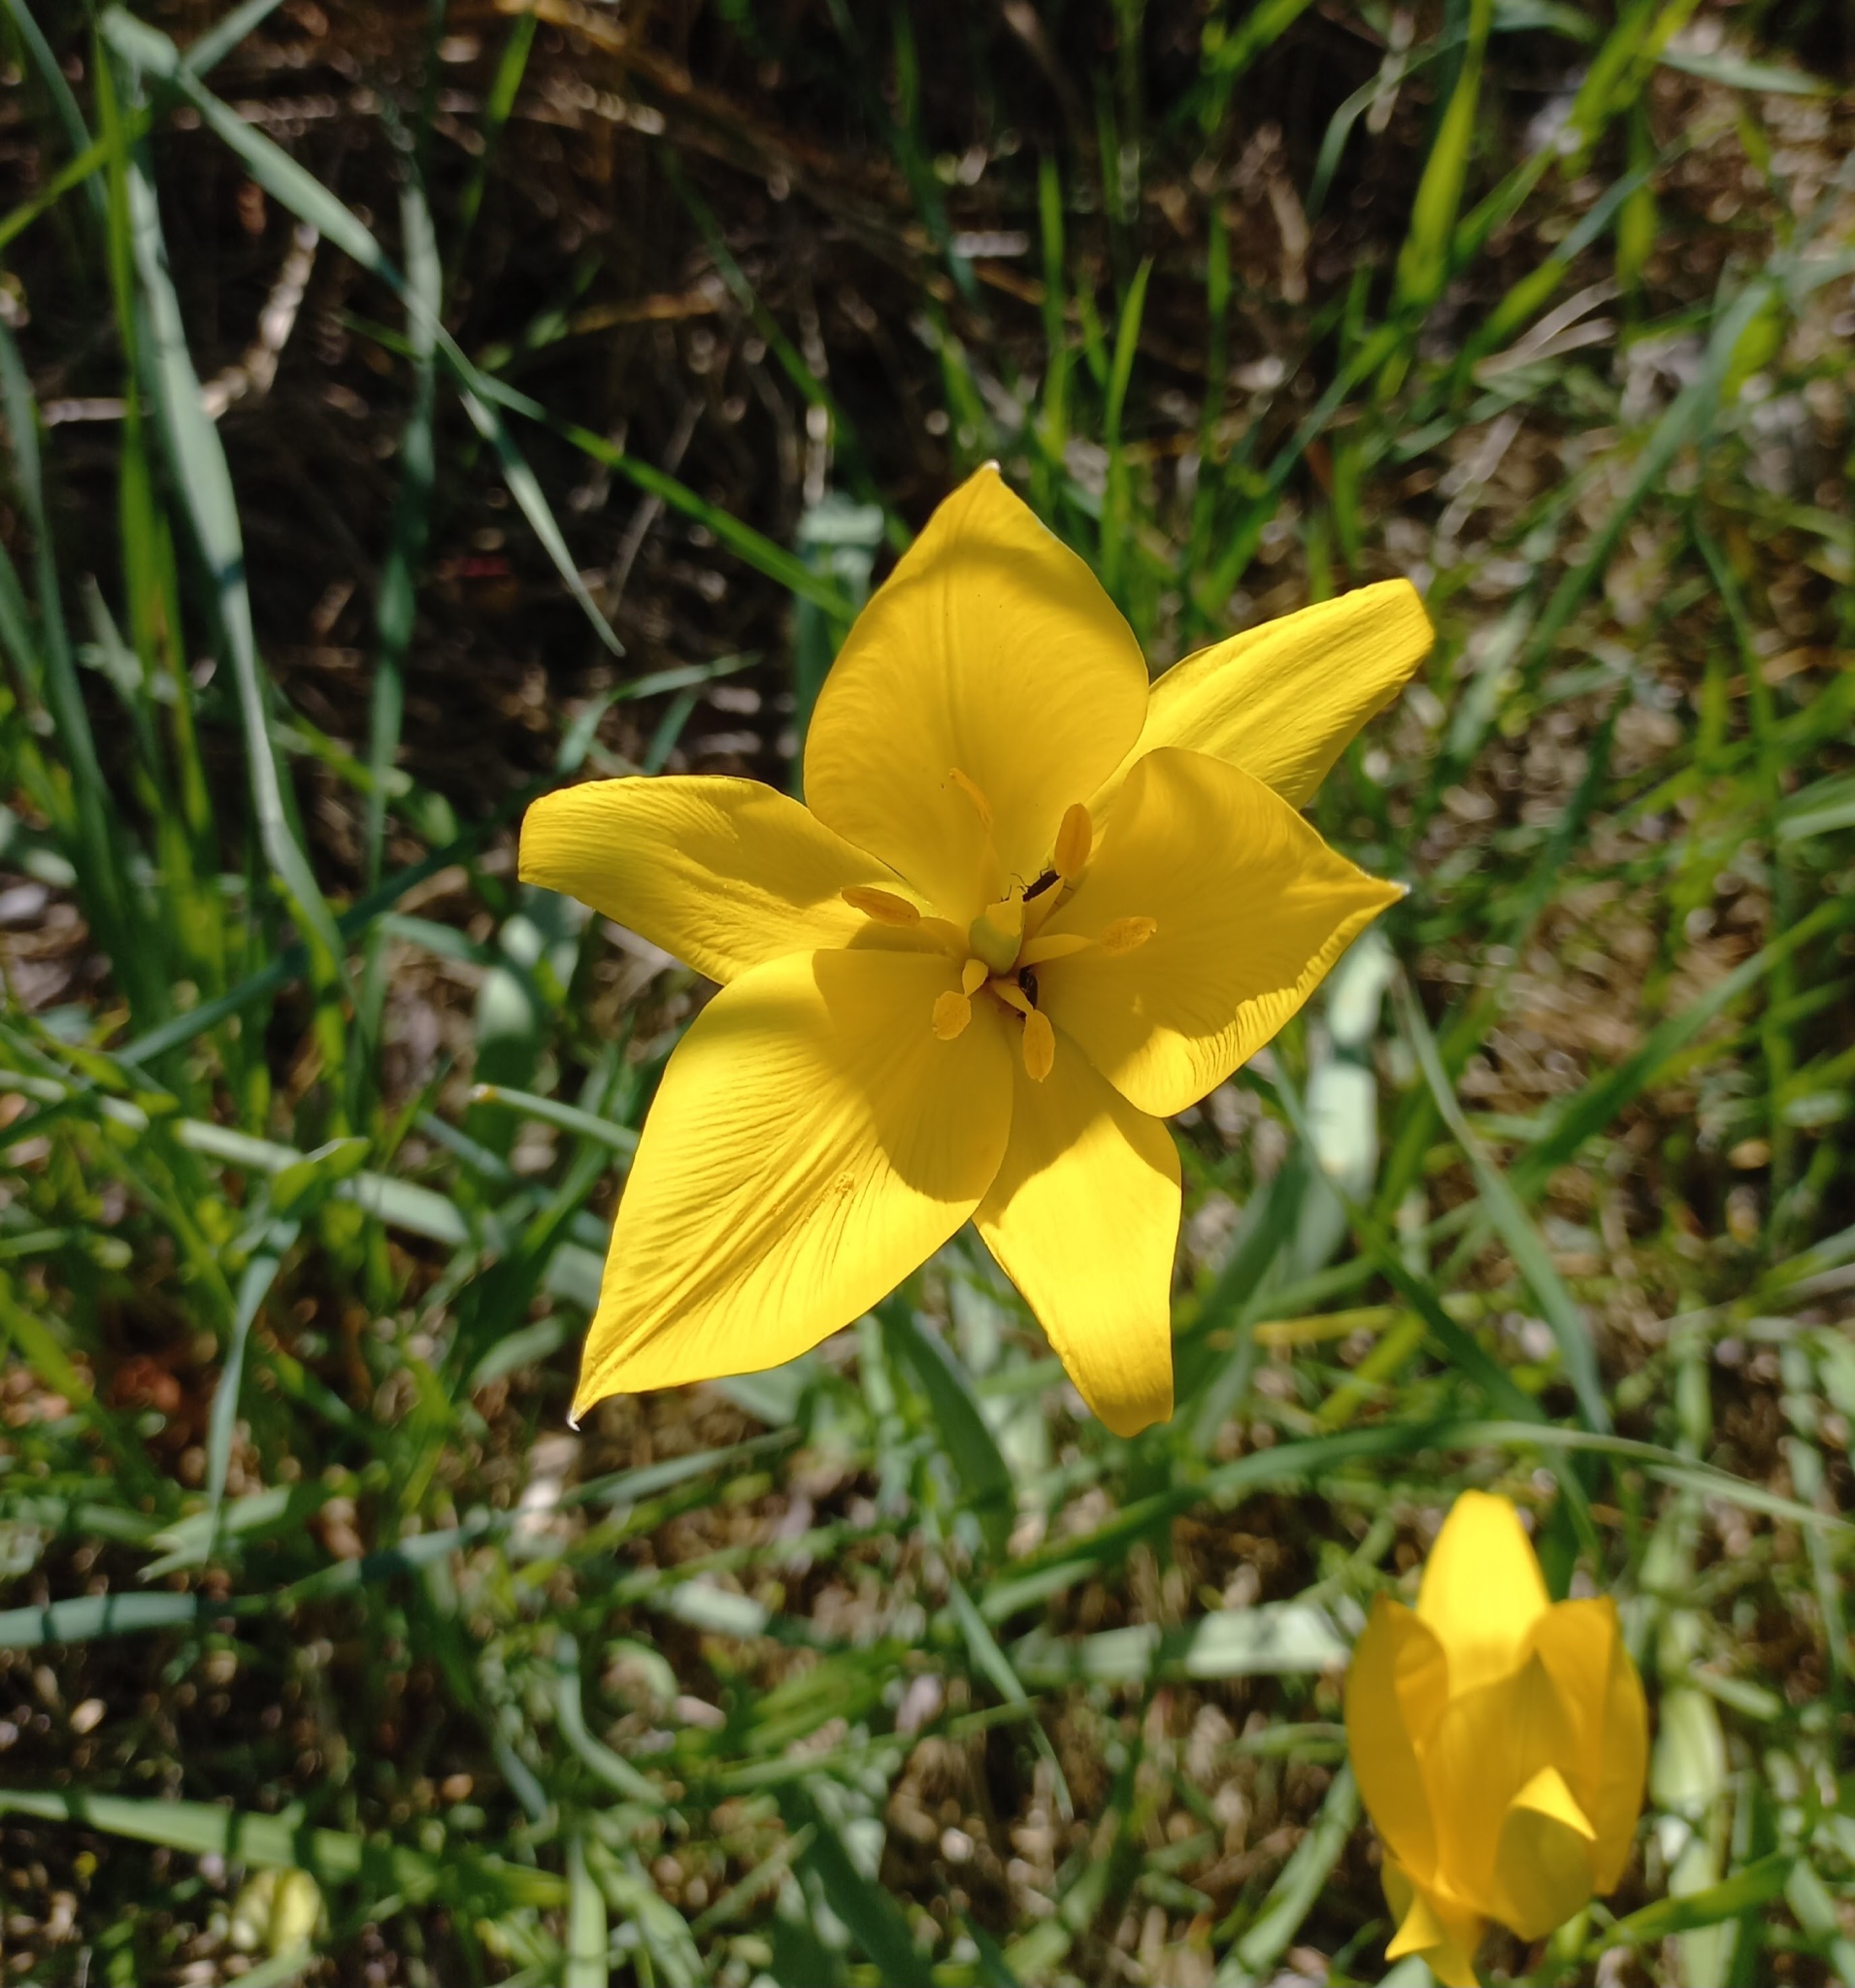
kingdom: Plantae
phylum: Tracheophyta
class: Liliopsida
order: Liliales
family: Liliaceae
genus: Tulipa
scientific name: Tulipa sylvestris
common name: Wild tulip
